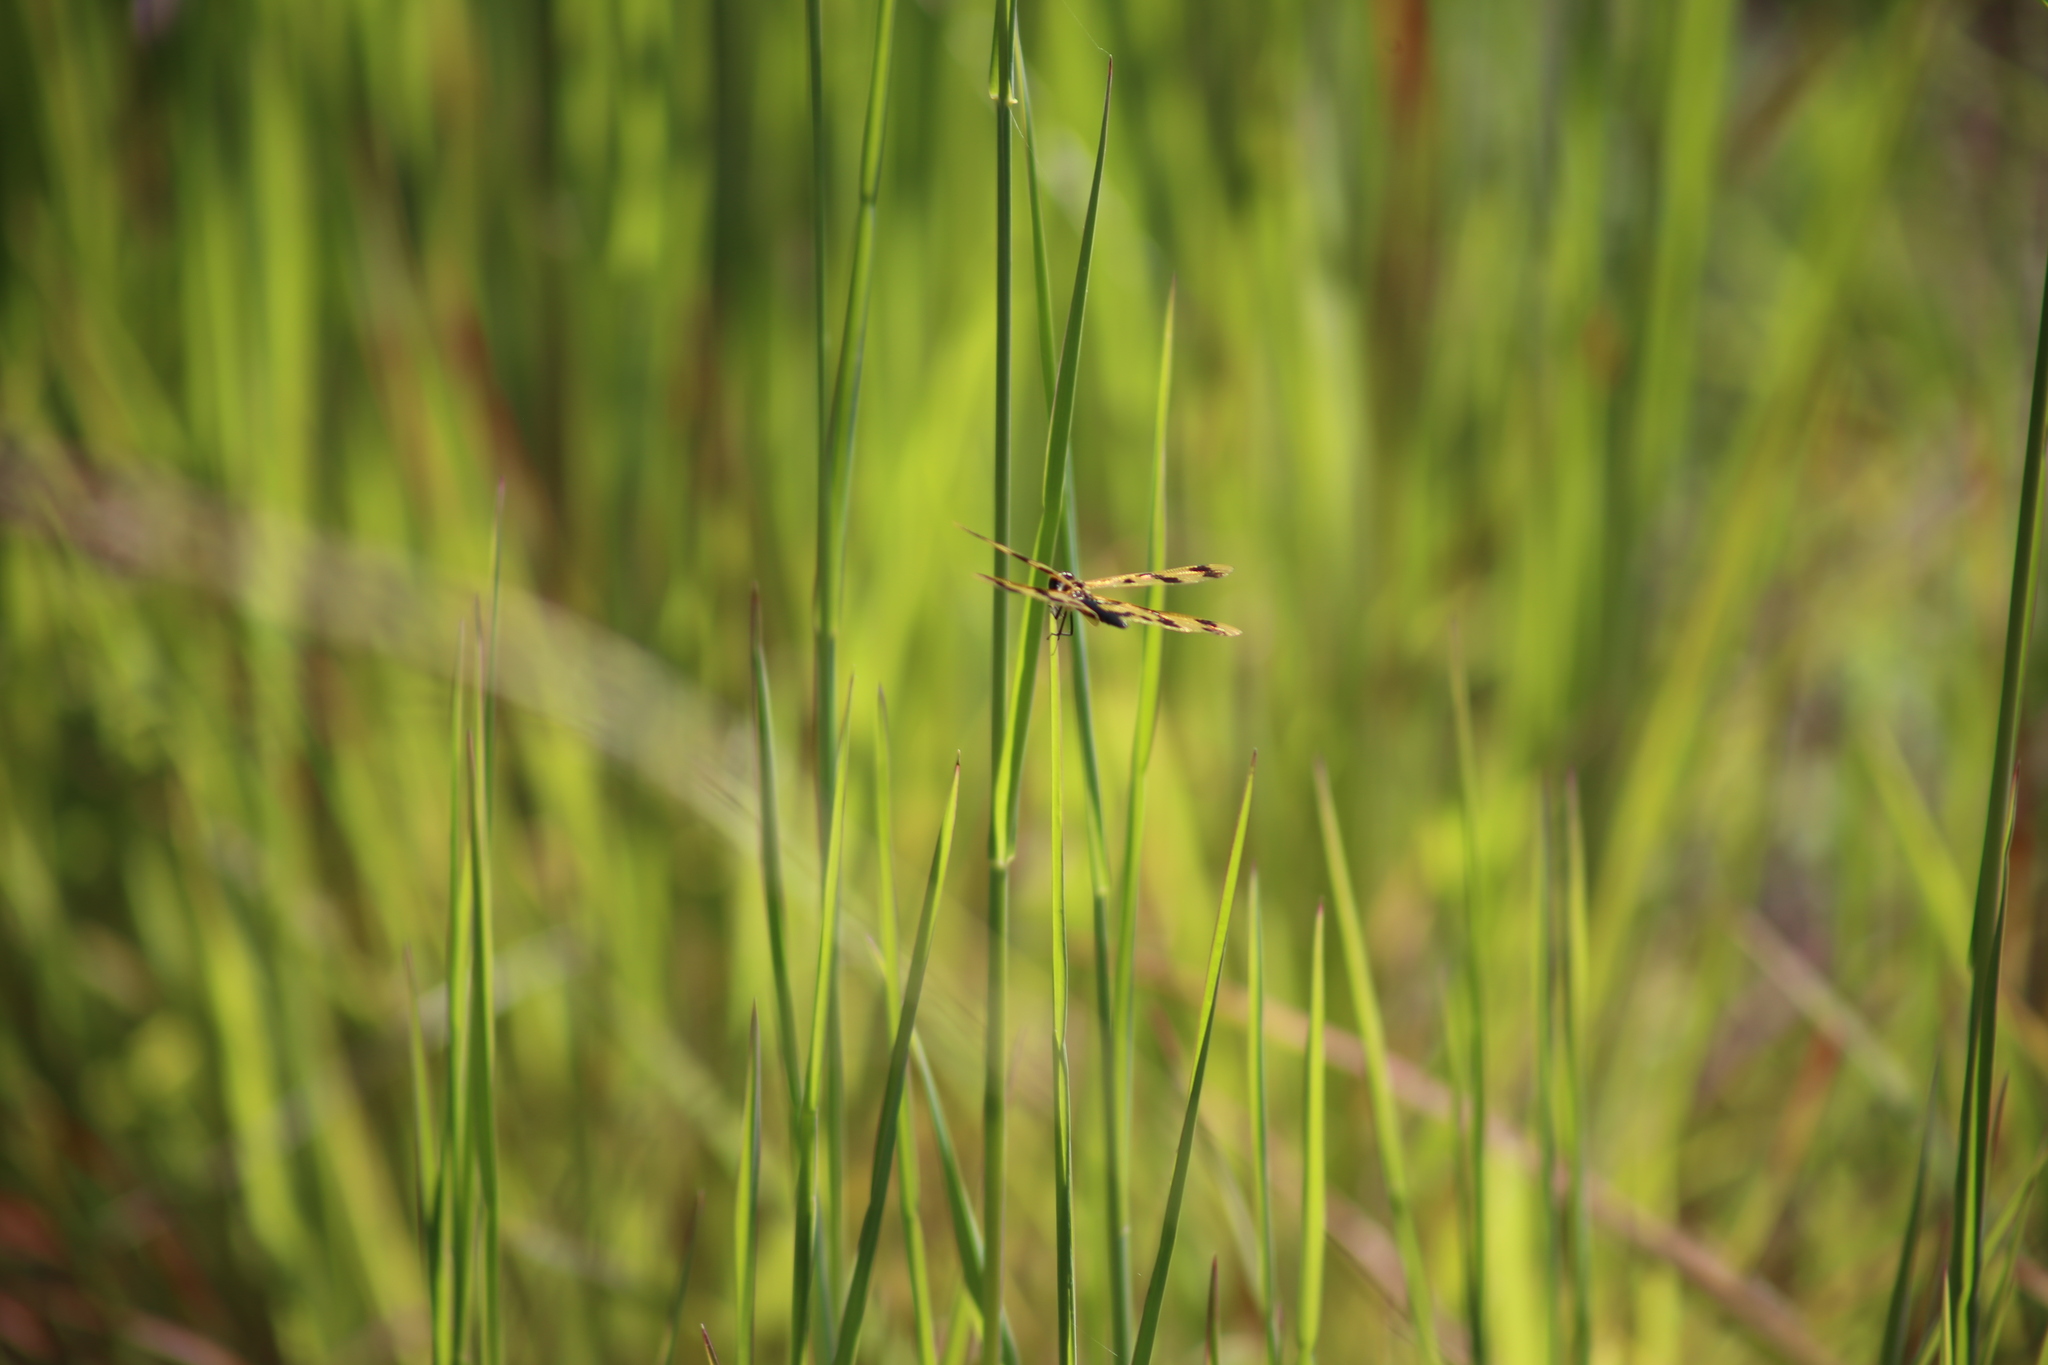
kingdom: Animalia
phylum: Arthropoda
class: Insecta
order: Odonata
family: Libellulidae
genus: Rhyothemis
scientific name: Rhyothemis graphiptera
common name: Graphic flutterer
